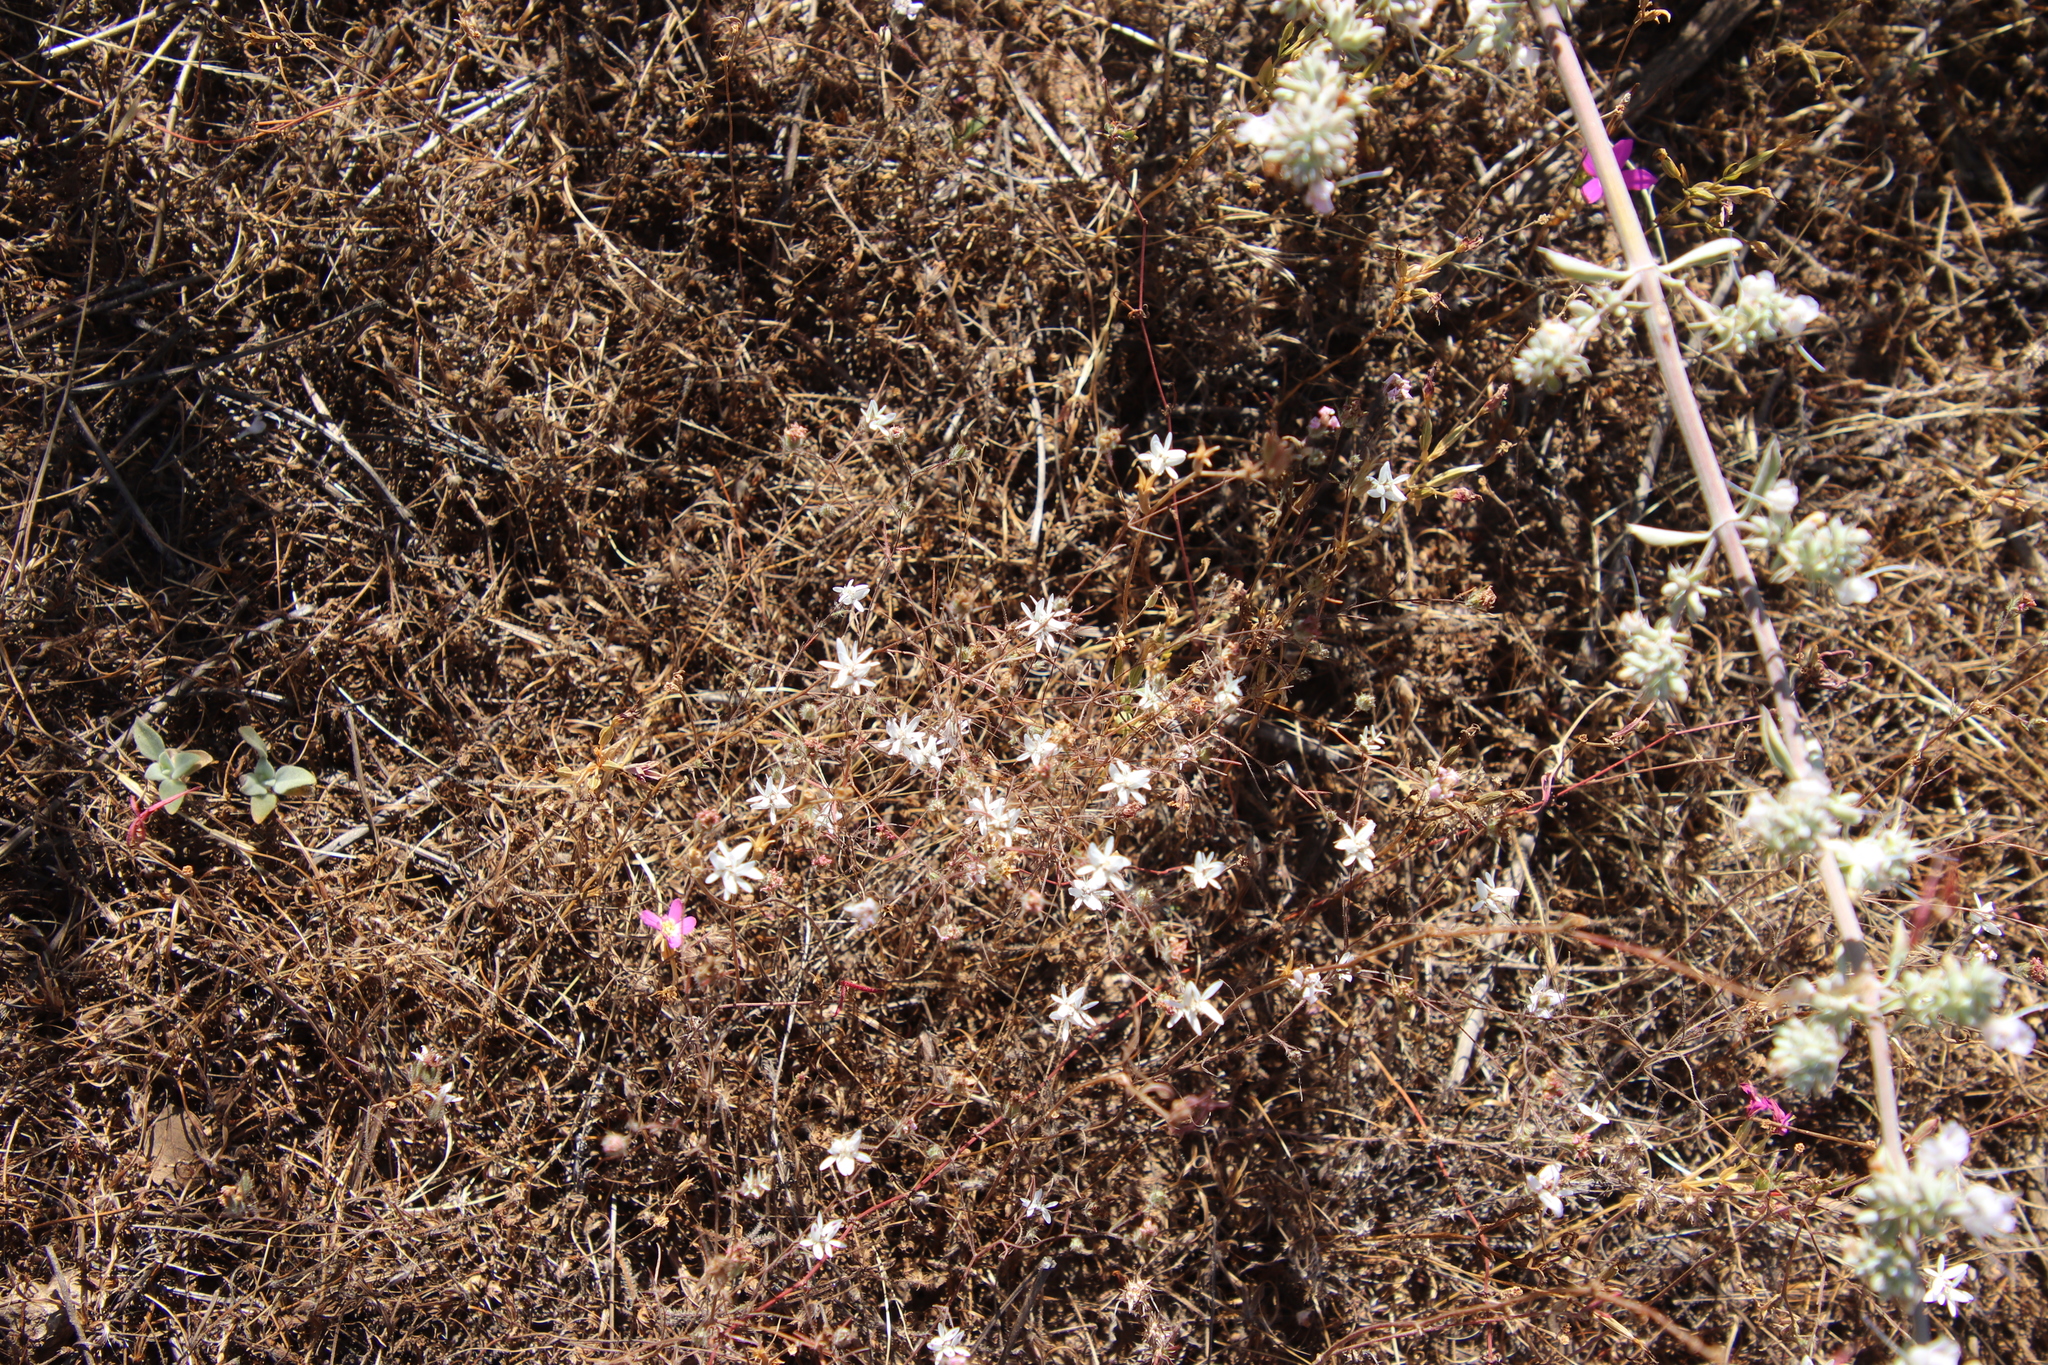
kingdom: Plantae
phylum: Tracheophyta
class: Magnoliopsida
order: Asterales
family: Asteraceae
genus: Osmadenia
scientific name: Osmadenia tenella
